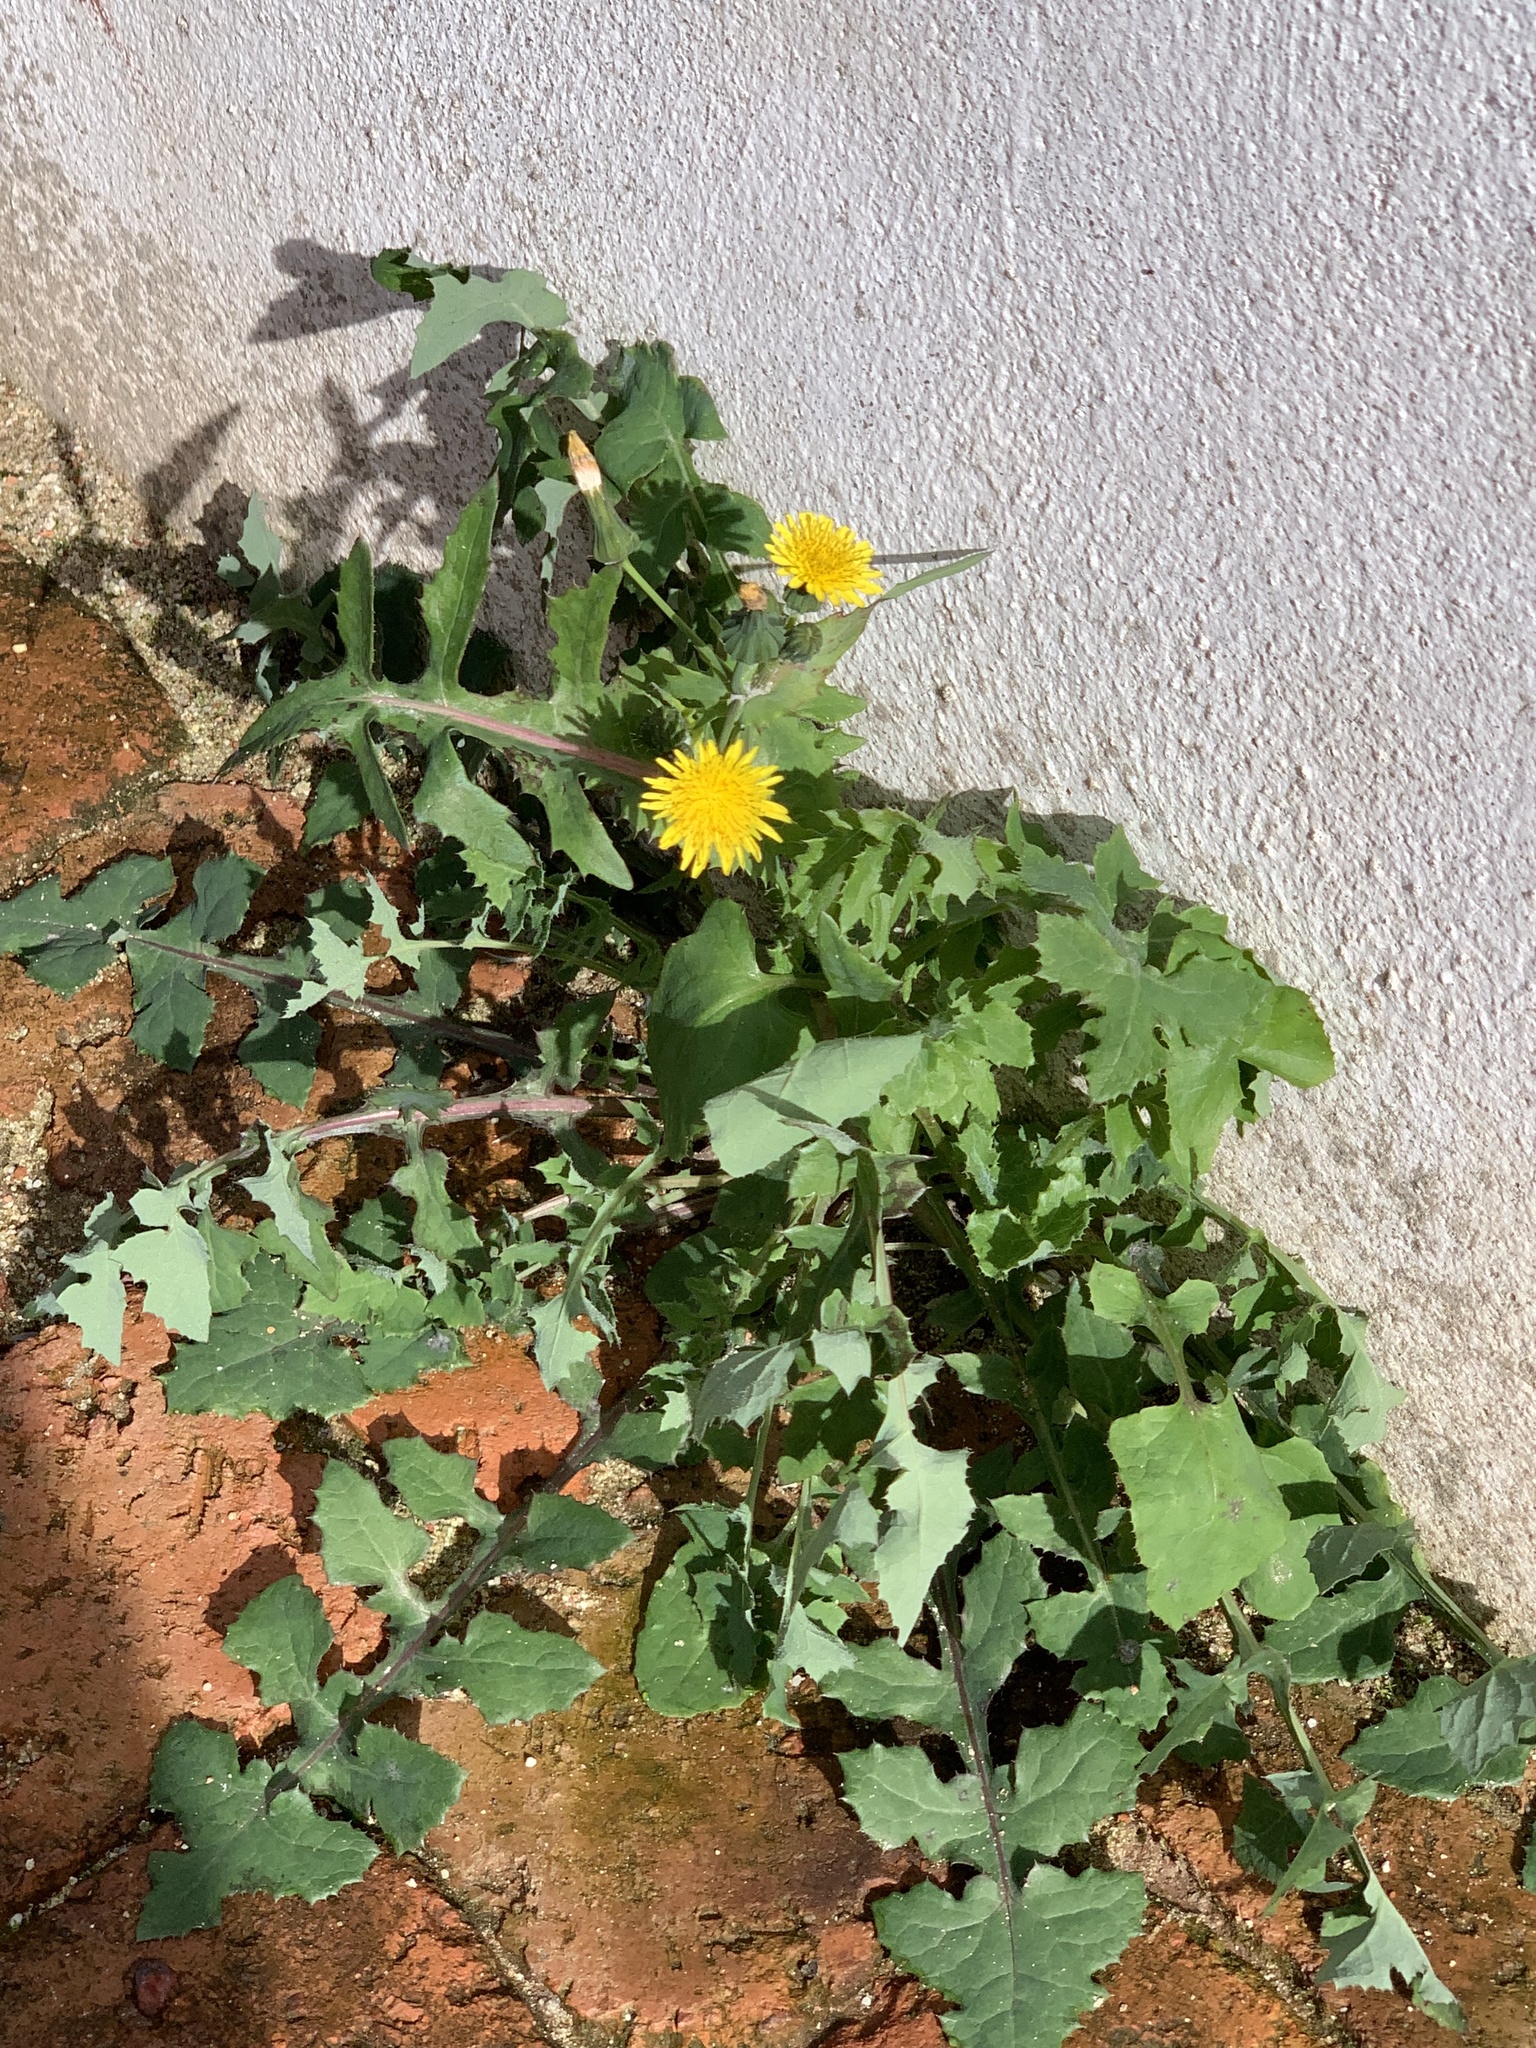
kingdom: Plantae
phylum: Tracheophyta
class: Magnoliopsida
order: Asterales
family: Asteraceae
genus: Sonchus
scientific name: Sonchus oleraceus
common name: Common sowthistle
